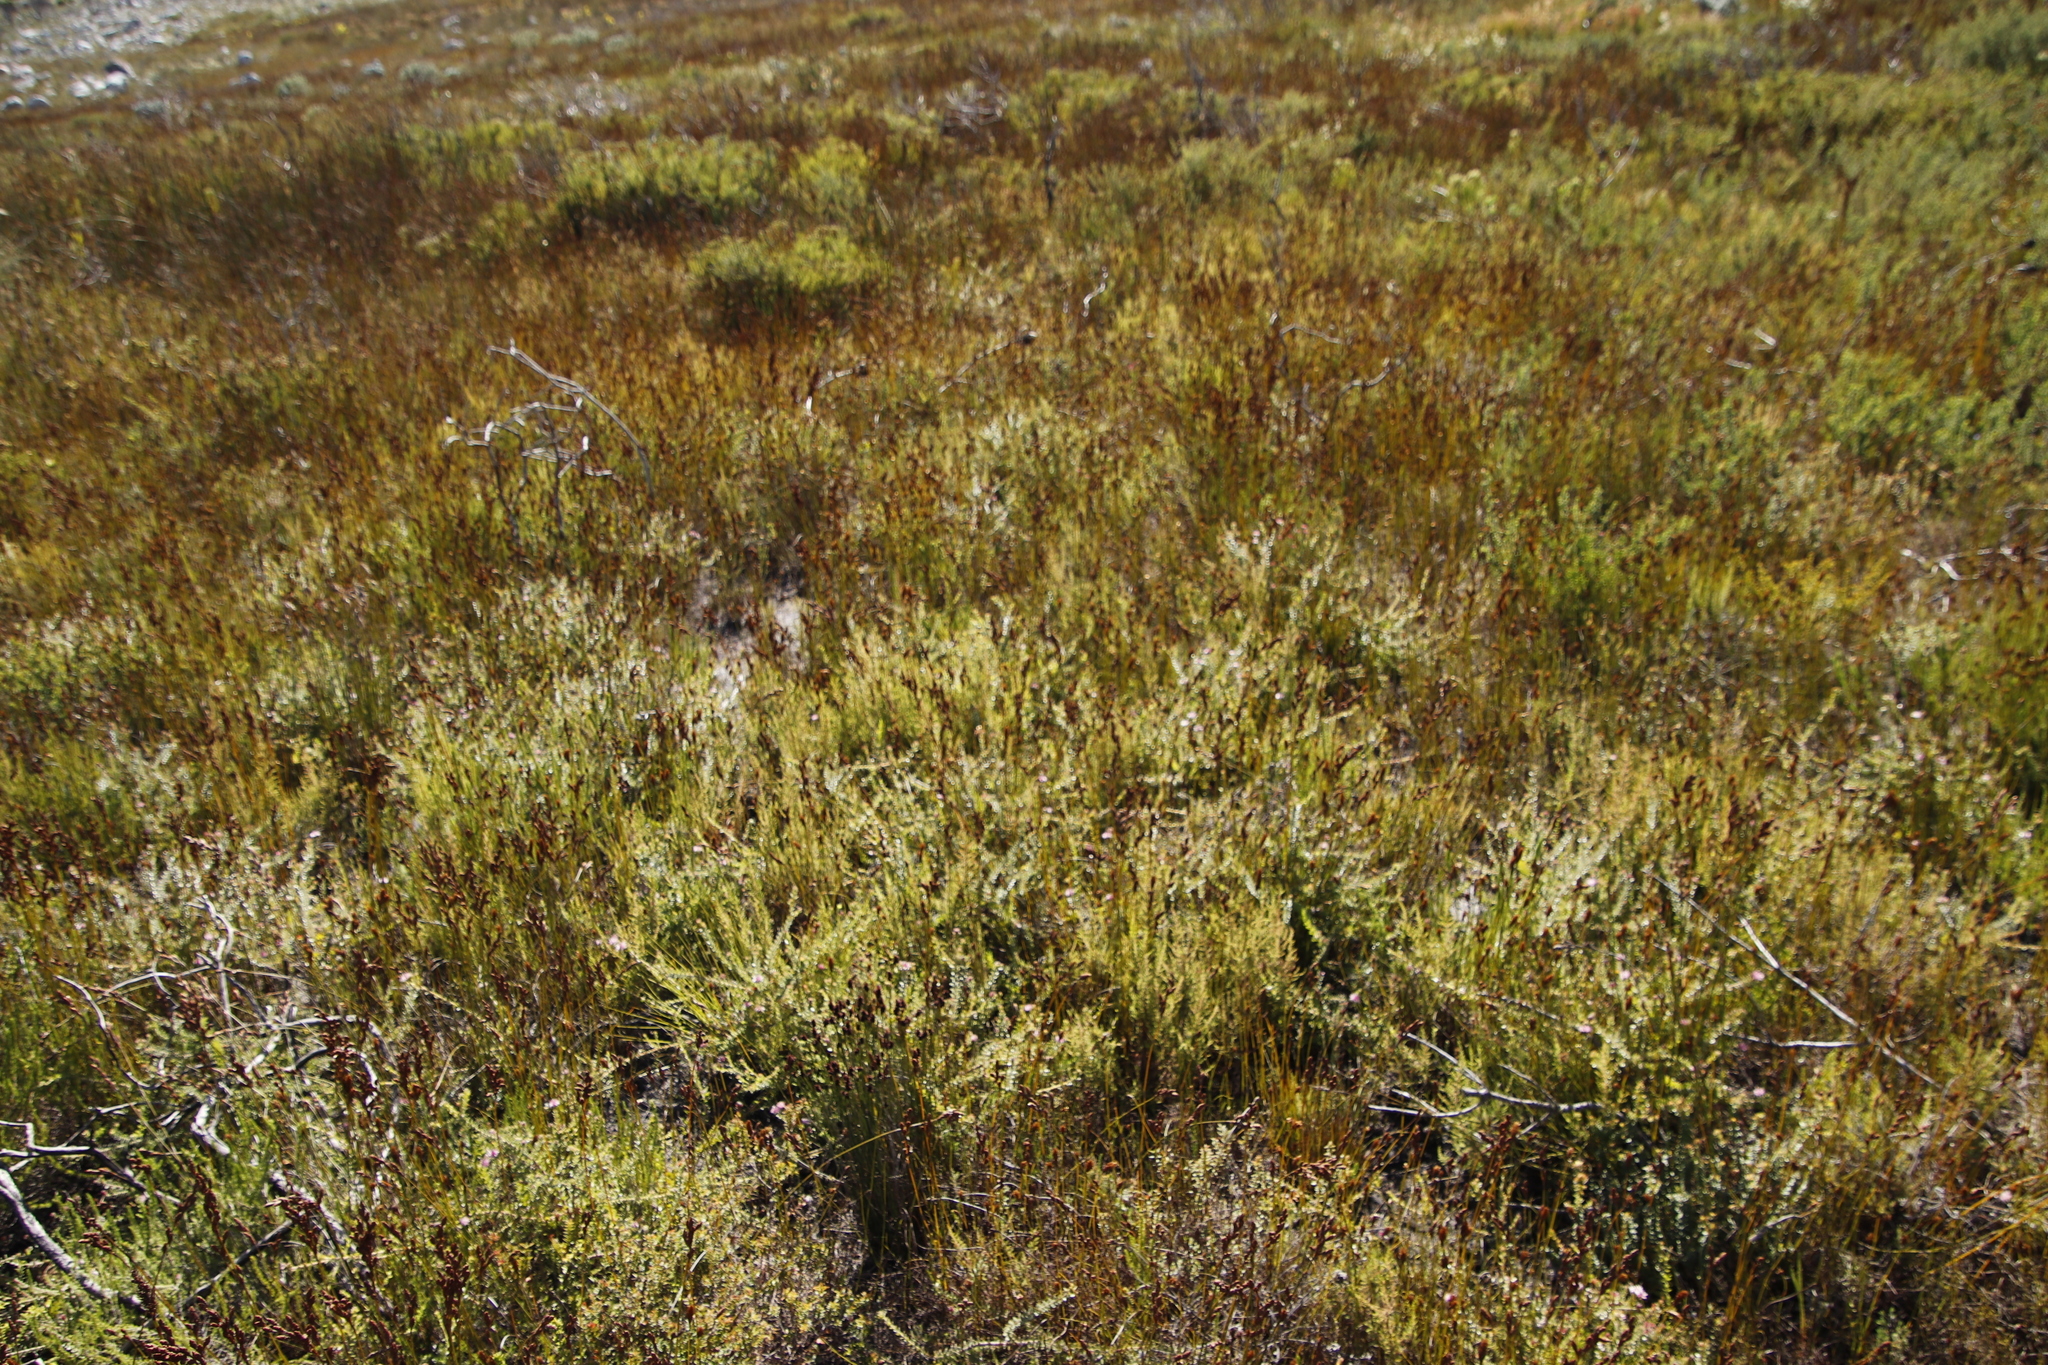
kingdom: Plantae
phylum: Tracheophyta
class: Magnoliopsida
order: Proteales
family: Proteaceae
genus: Diastella
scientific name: Diastella divaricata
